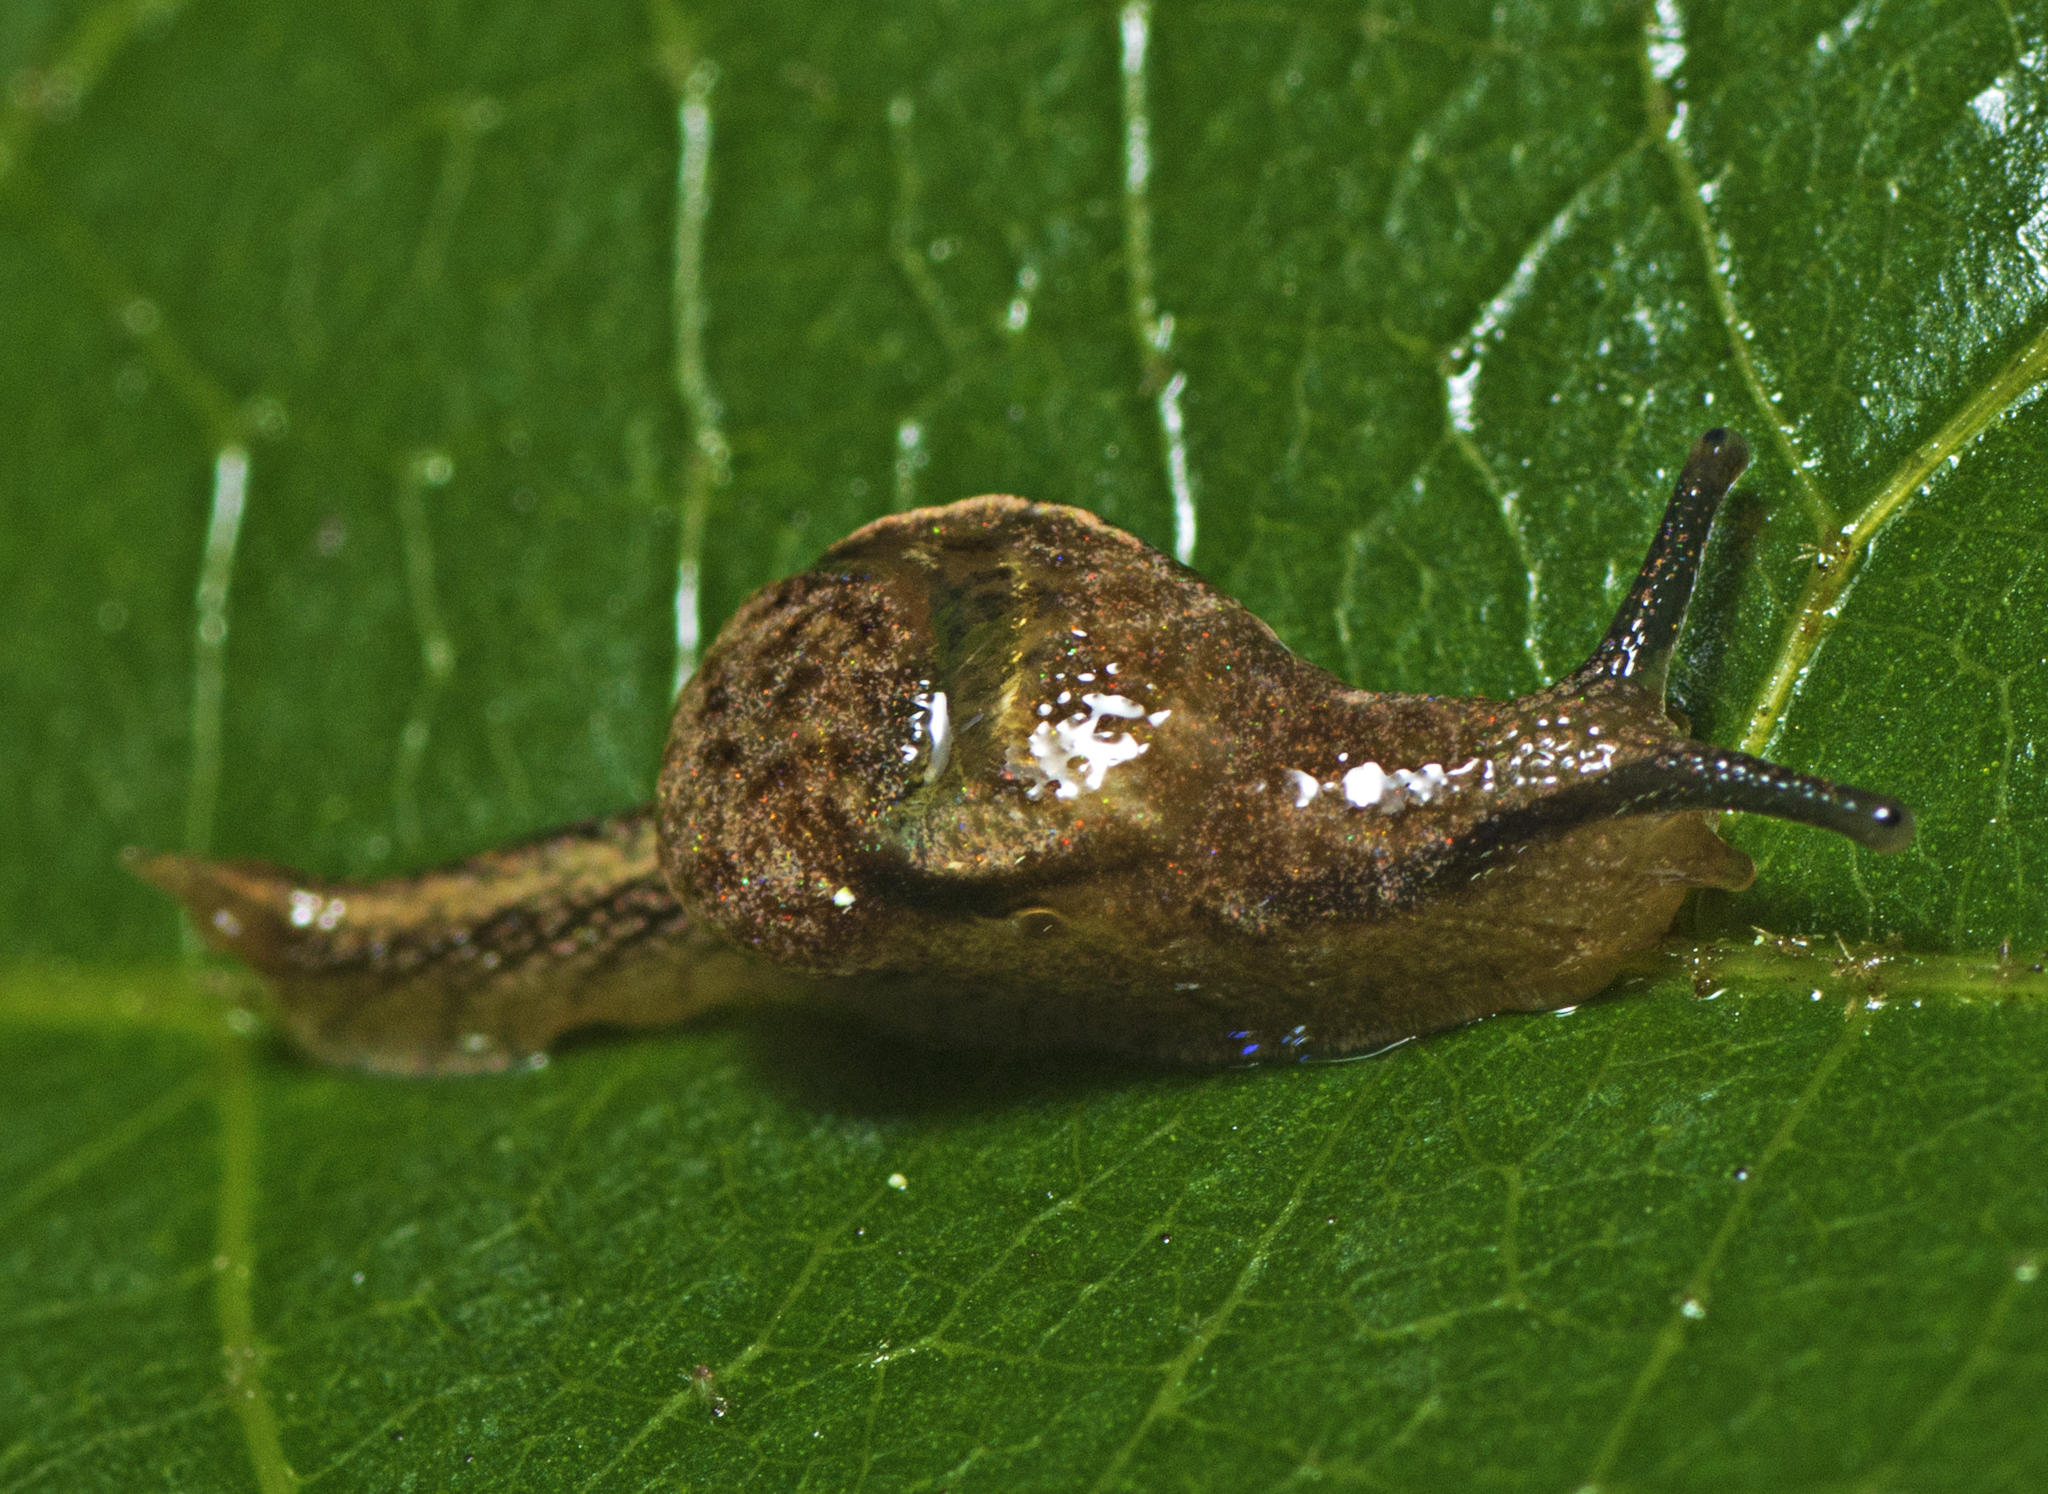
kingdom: Animalia
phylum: Mollusca
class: Gastropoda
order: Stylommatophora
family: Helicarionidae
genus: Ubiquitarion
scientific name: Ubiquitarion iridis
